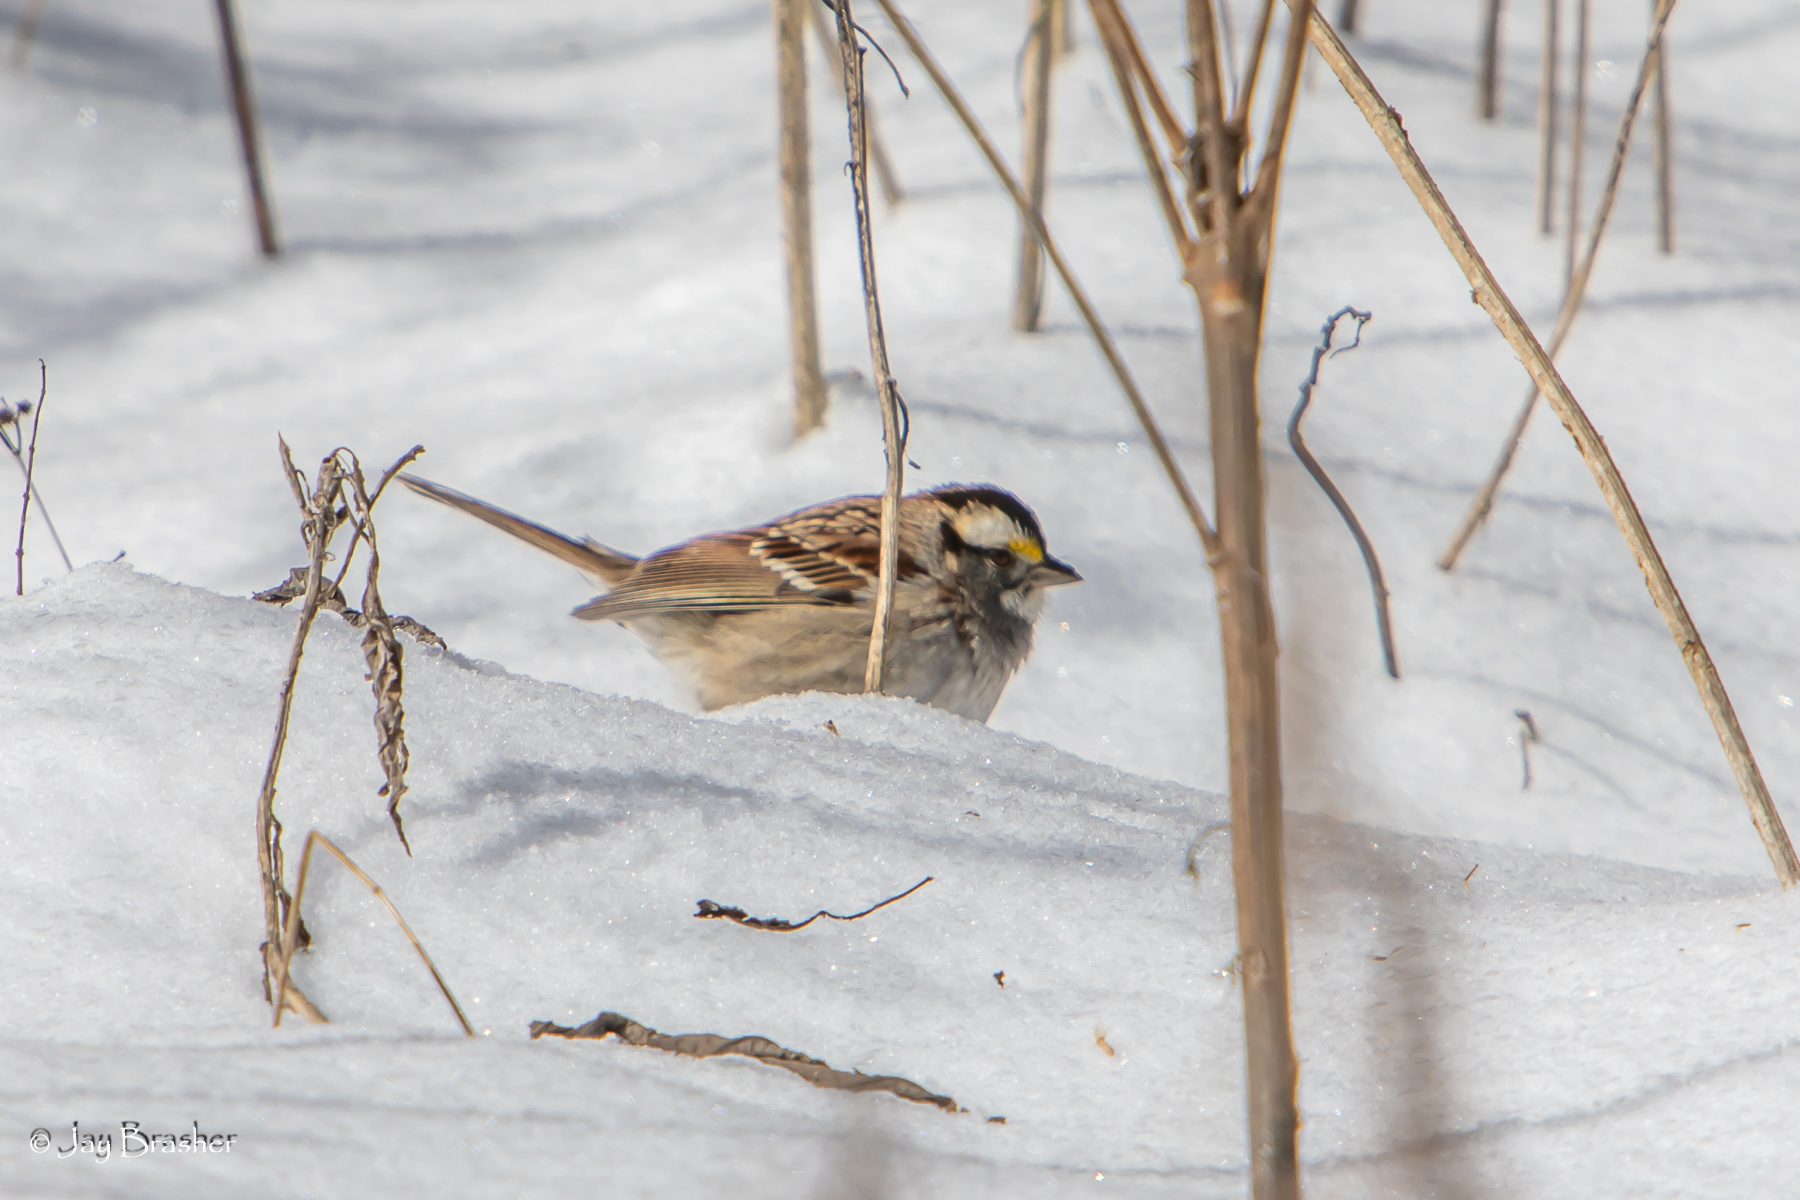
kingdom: Animalia
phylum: Chordata
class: Aves
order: Passeriformes
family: Passerellidae
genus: Zonotrichia
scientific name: Zonotrichia albicollis
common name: White-throated sparrow
